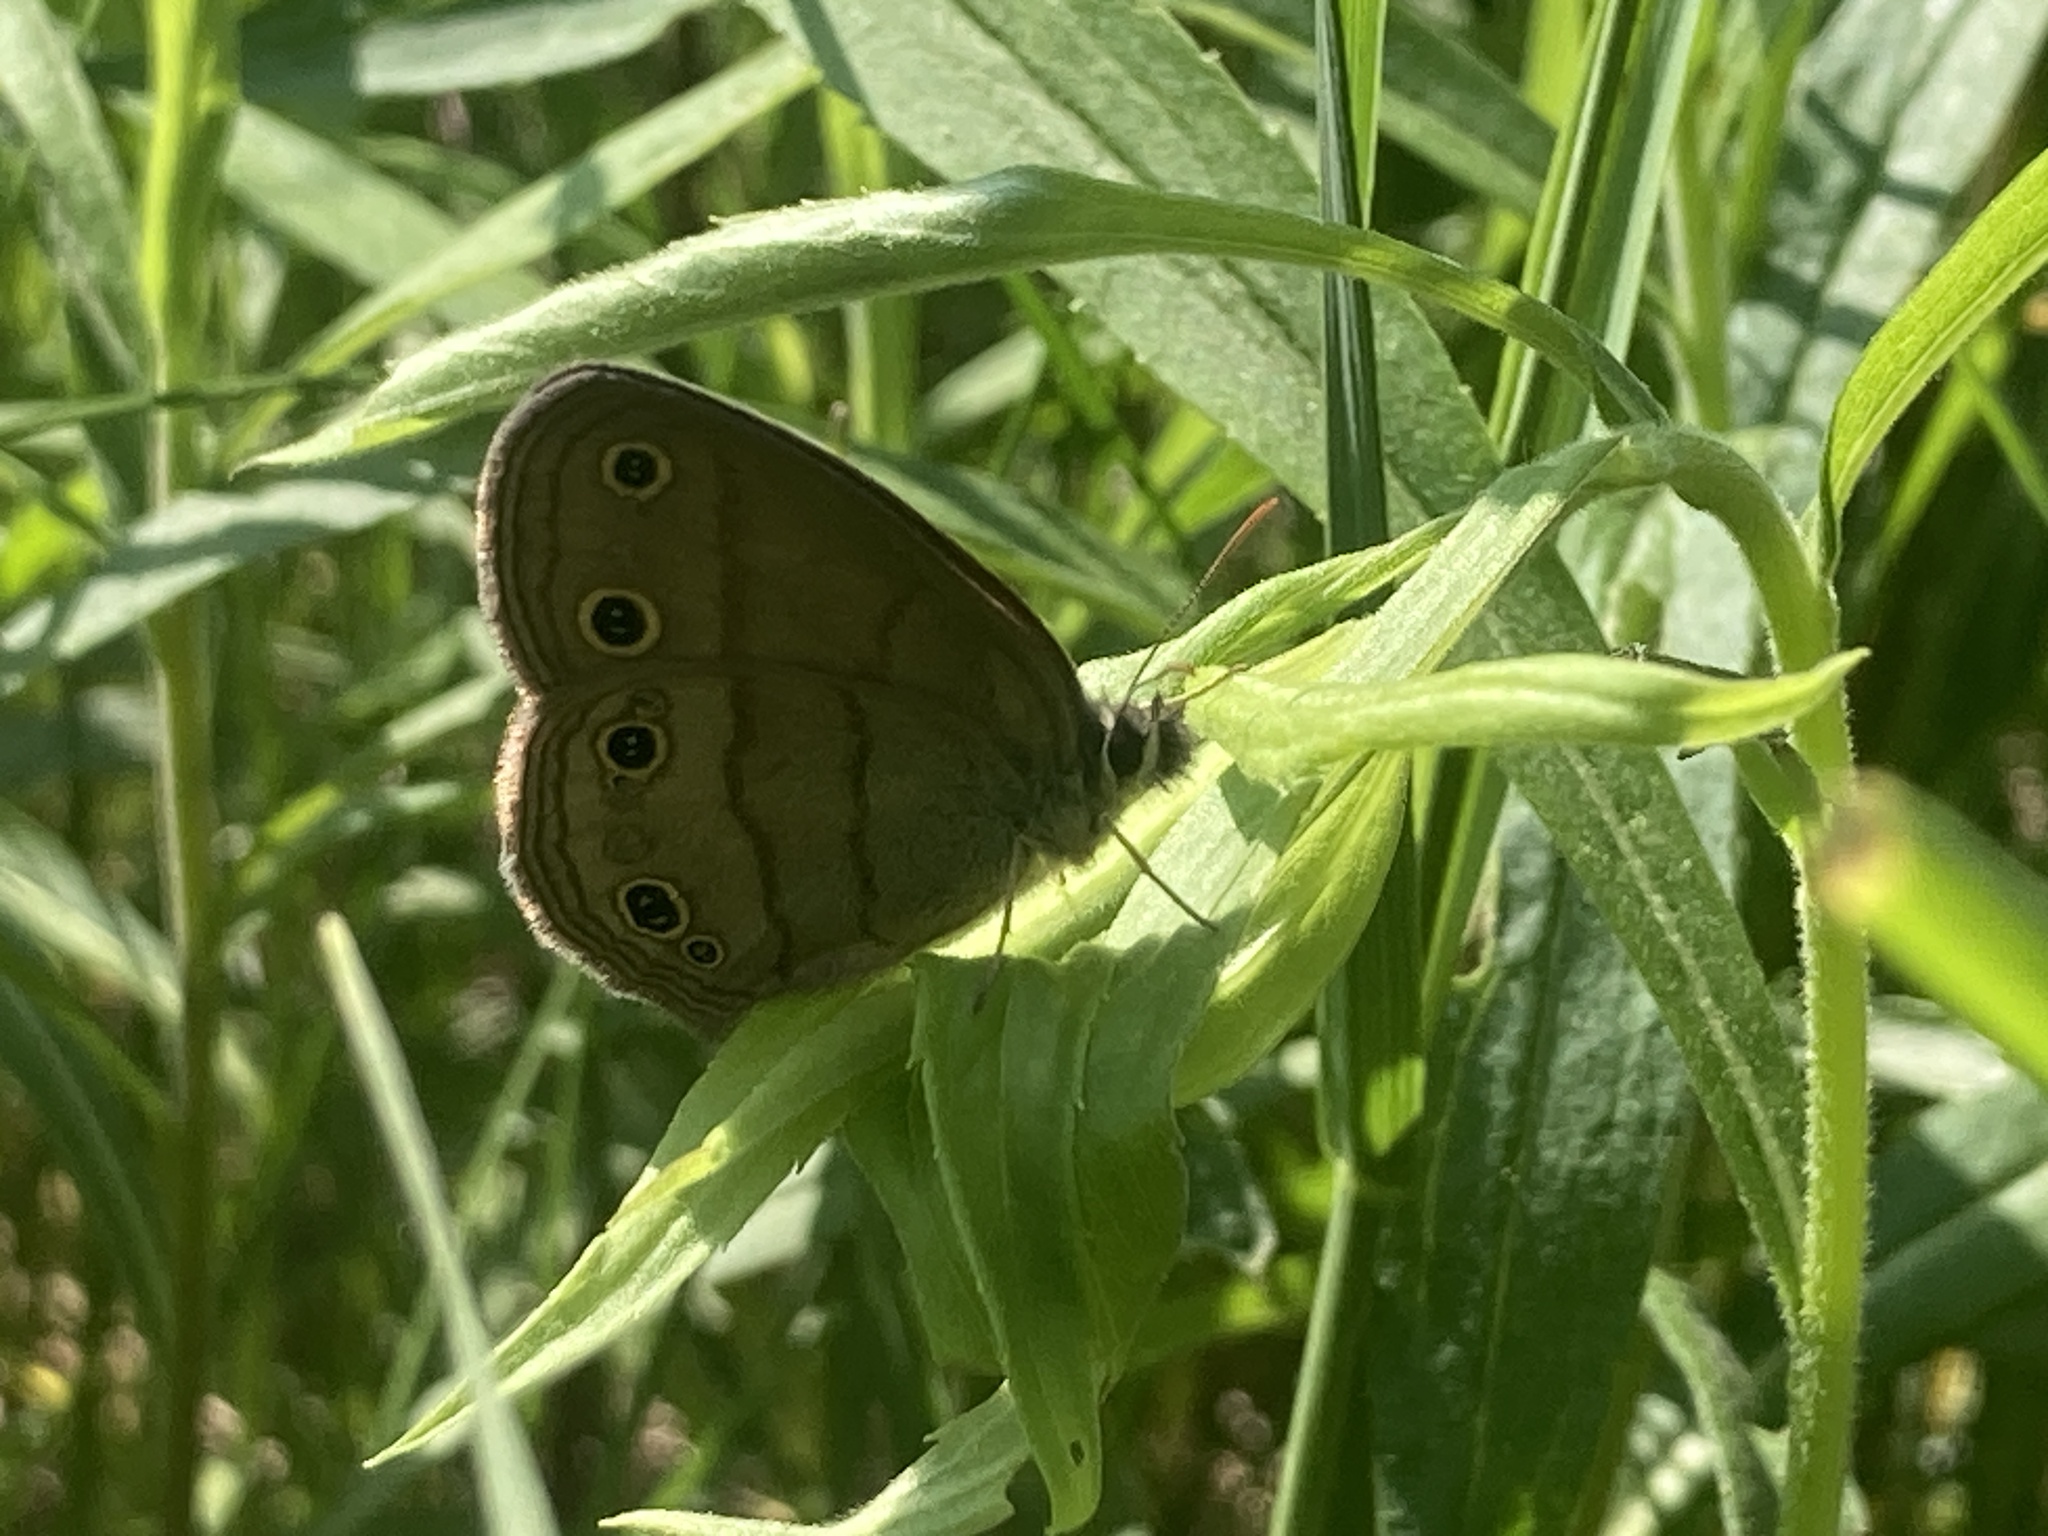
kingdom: Animalia
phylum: Arthropoda
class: Insecta
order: Lepidoptera
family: Nymphalidae
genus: Euptychia
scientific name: Euptychia cymela
